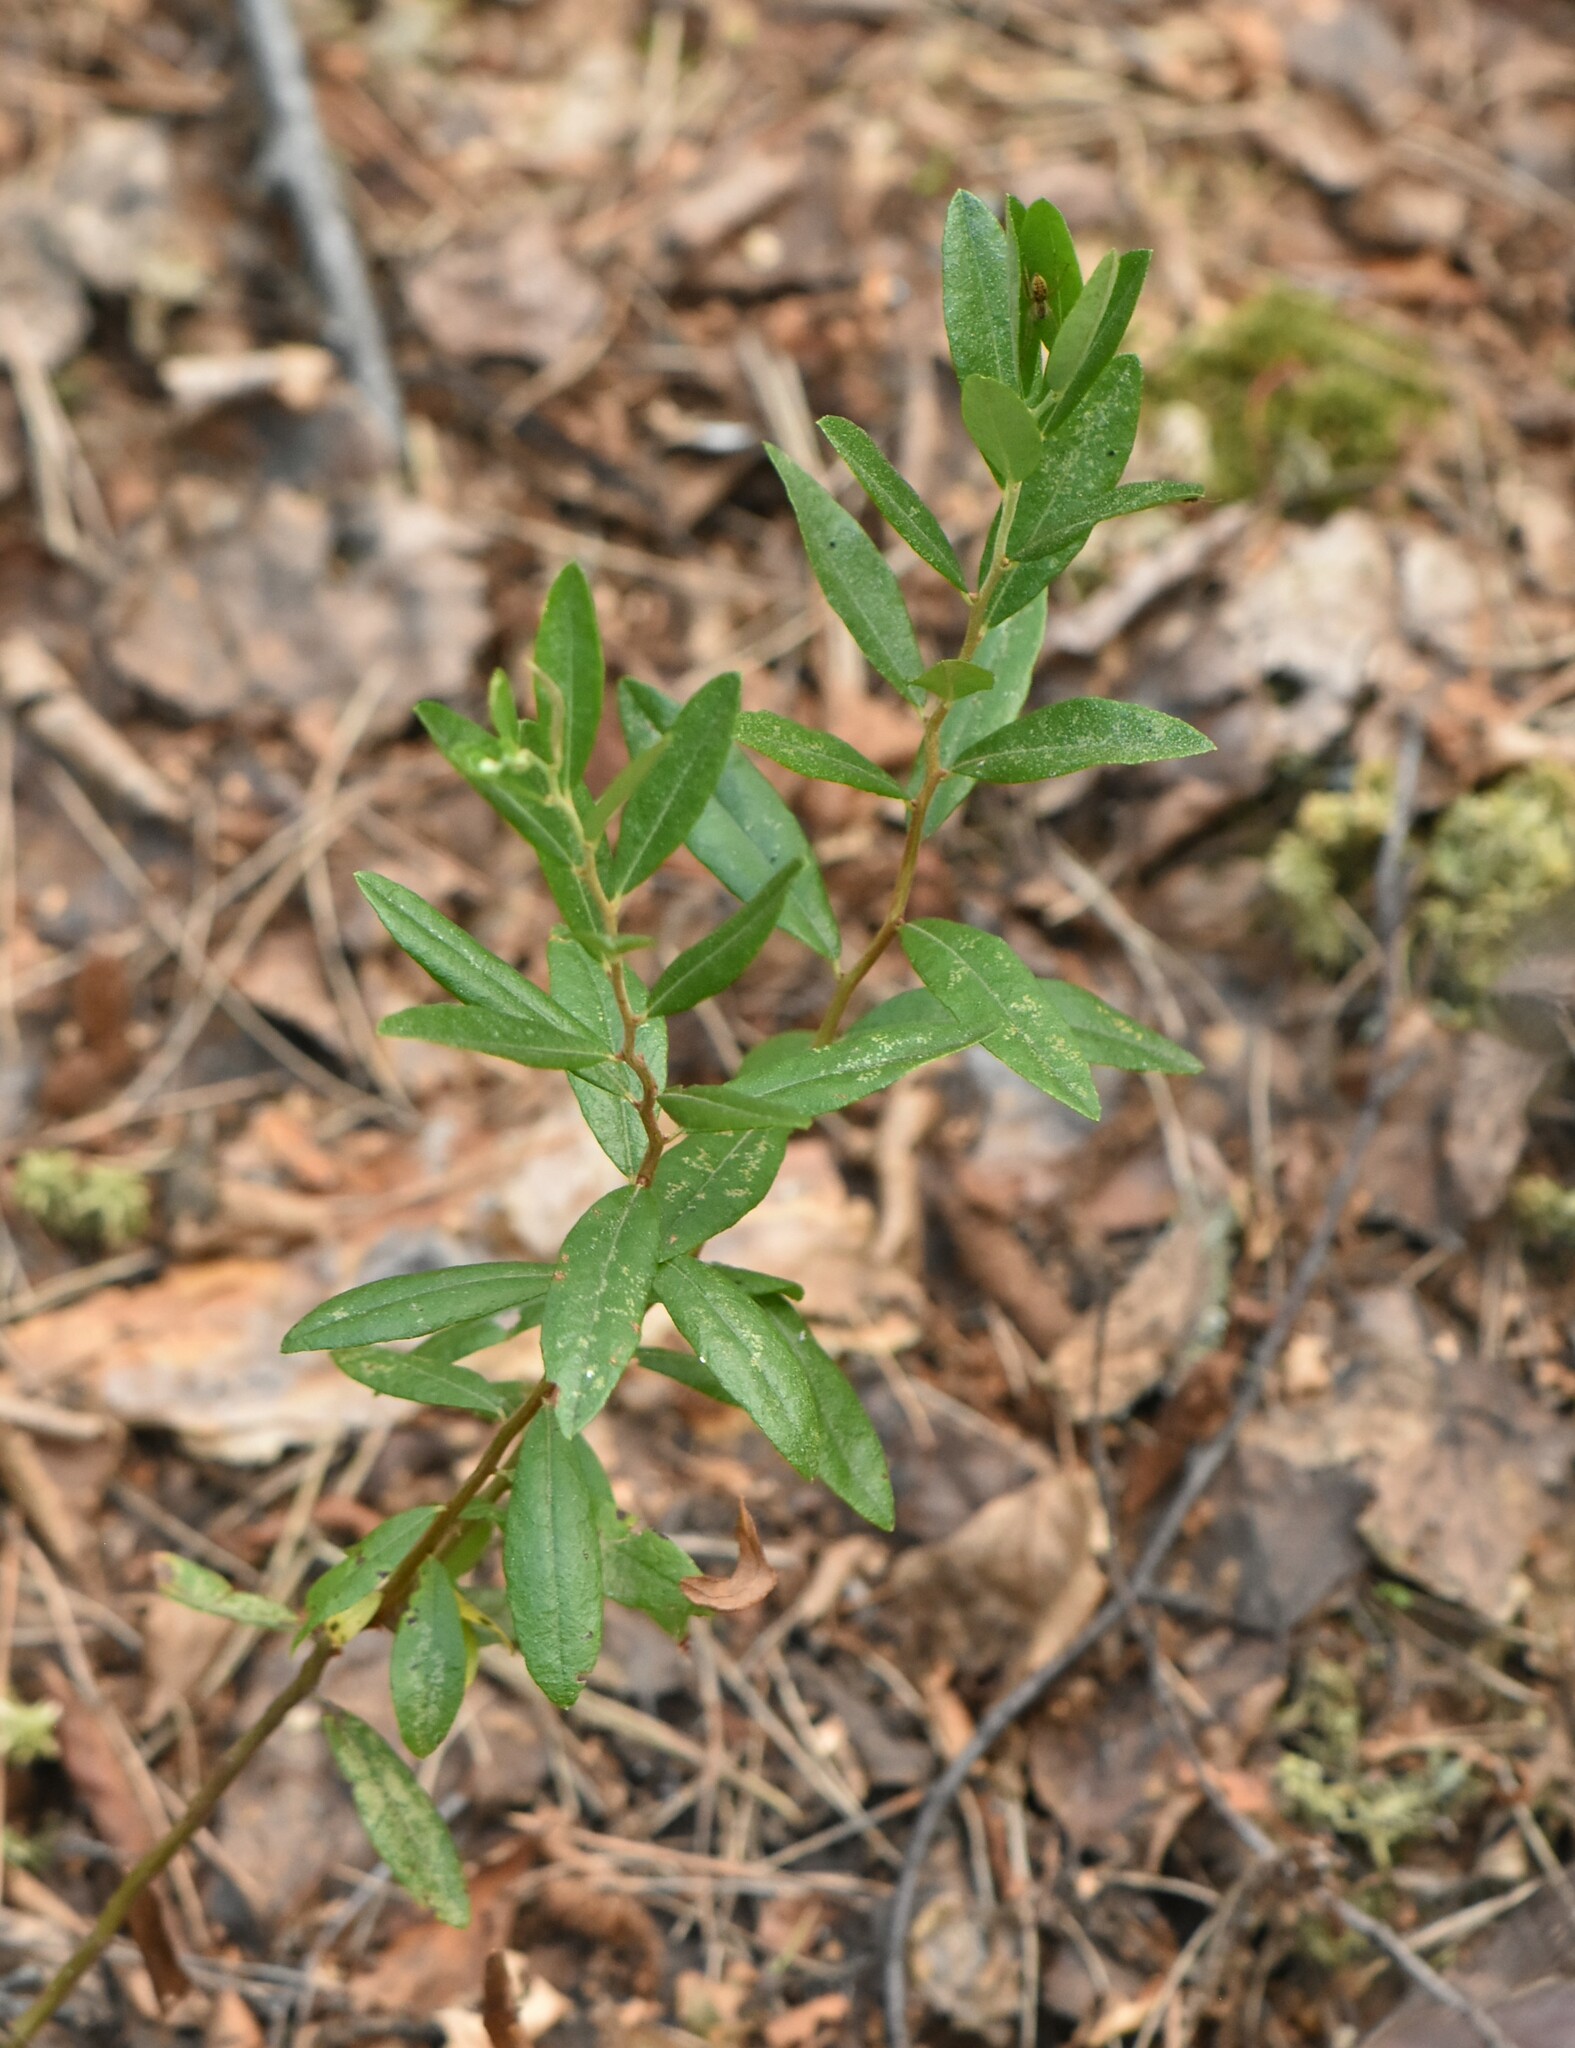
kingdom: Plantae
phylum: Tracheophyta
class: Magnoliopsida
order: Ericales
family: Ericaceae
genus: Chamaedaphne
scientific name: Chamaedaphne calyculata
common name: Leatherleaf
